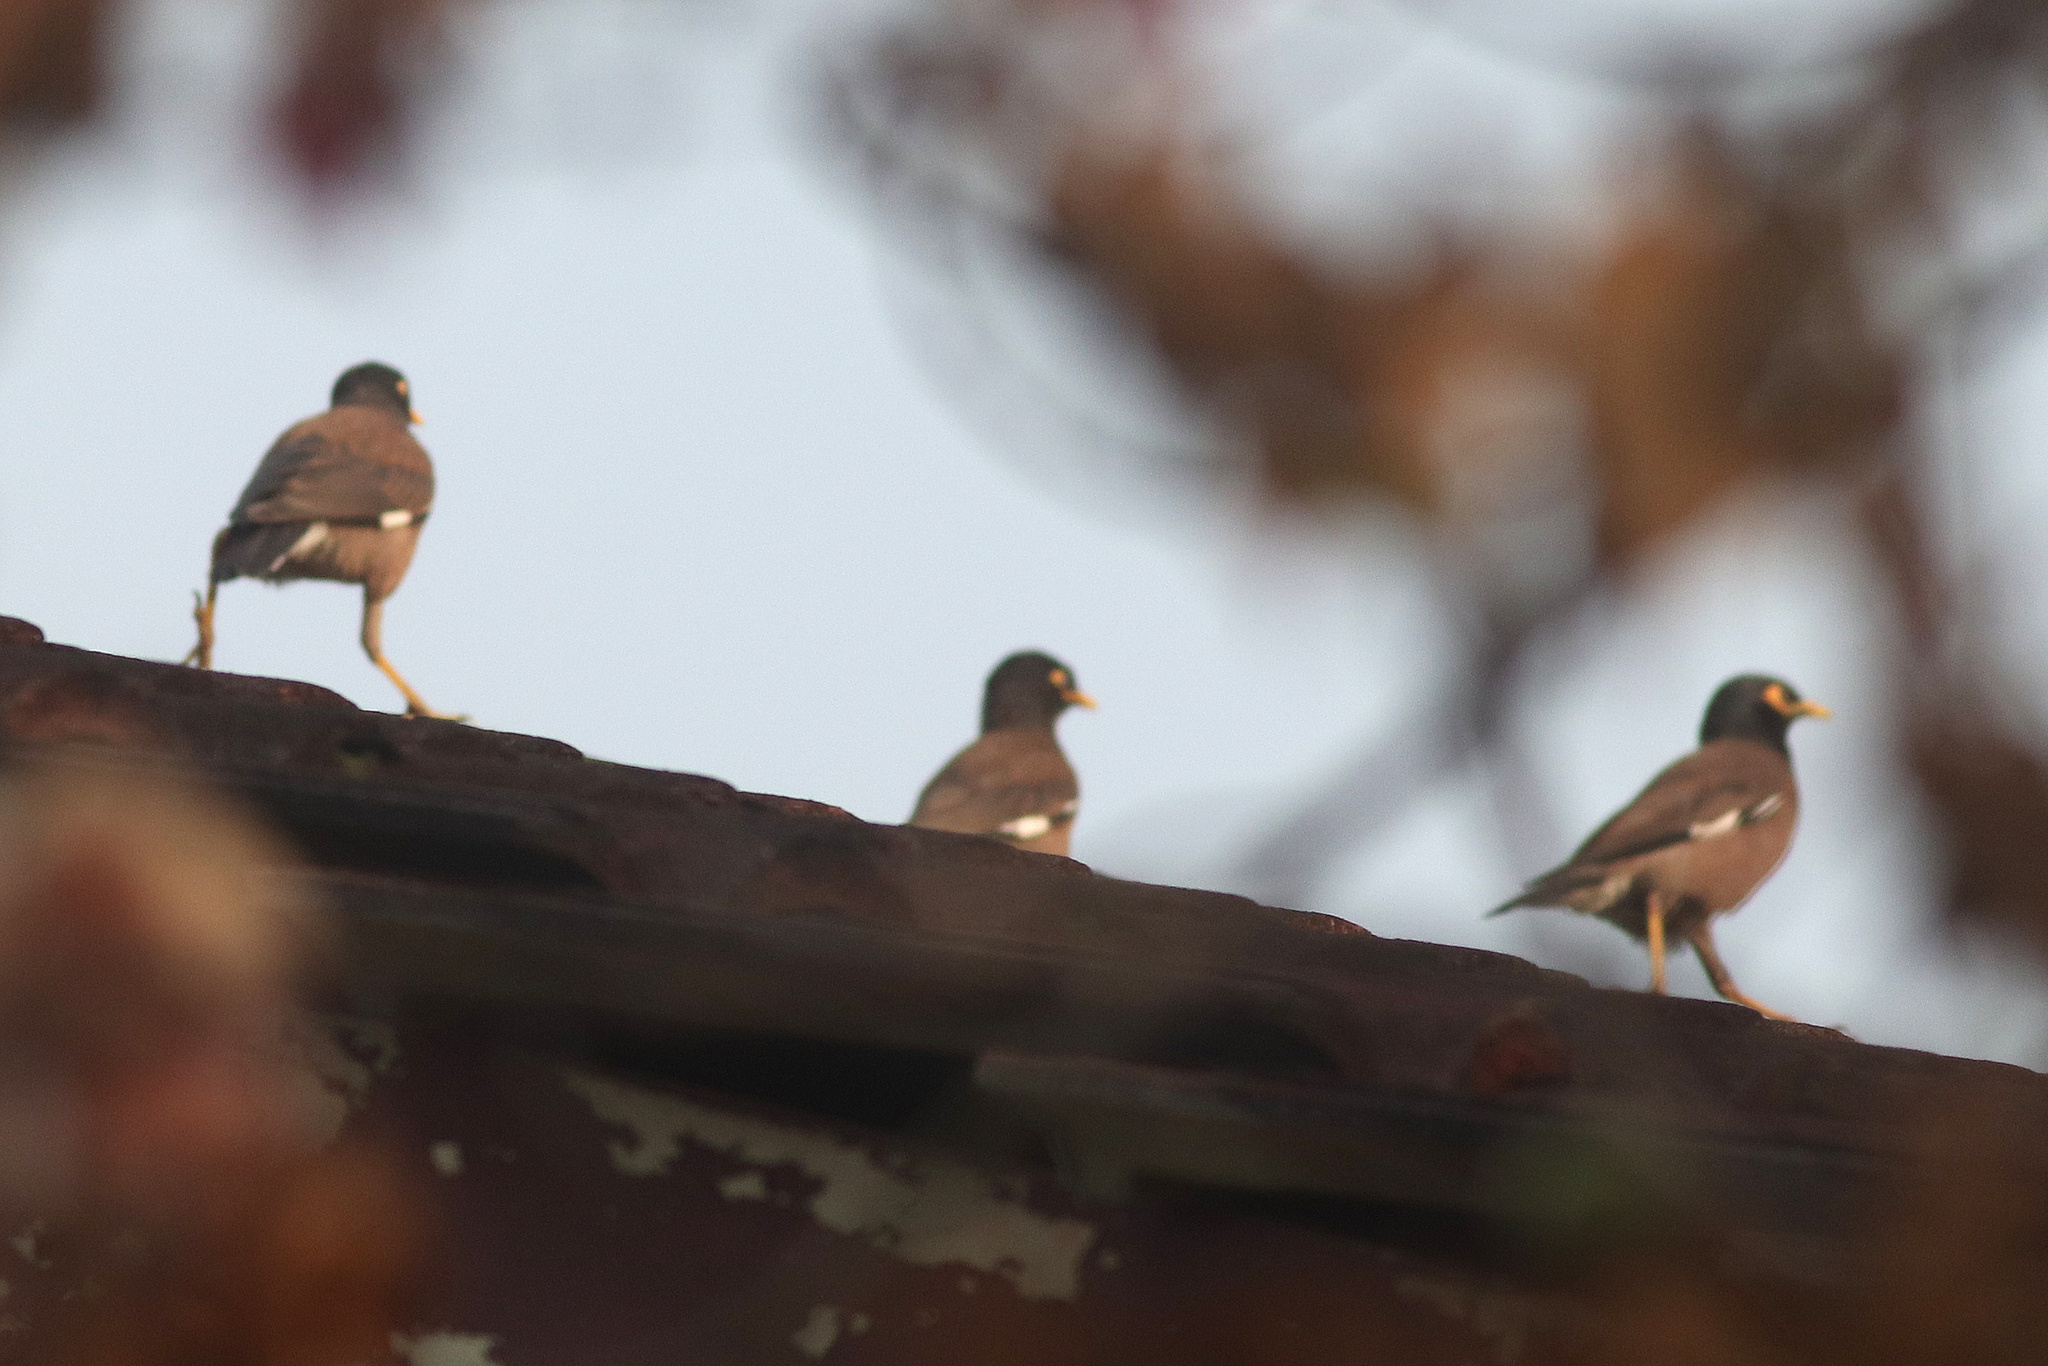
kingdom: Animalia
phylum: Chordata
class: Aves
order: Passeriformes
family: Sturnidae
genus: Acridotheres
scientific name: Acridotheres tristis
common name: Common myna
